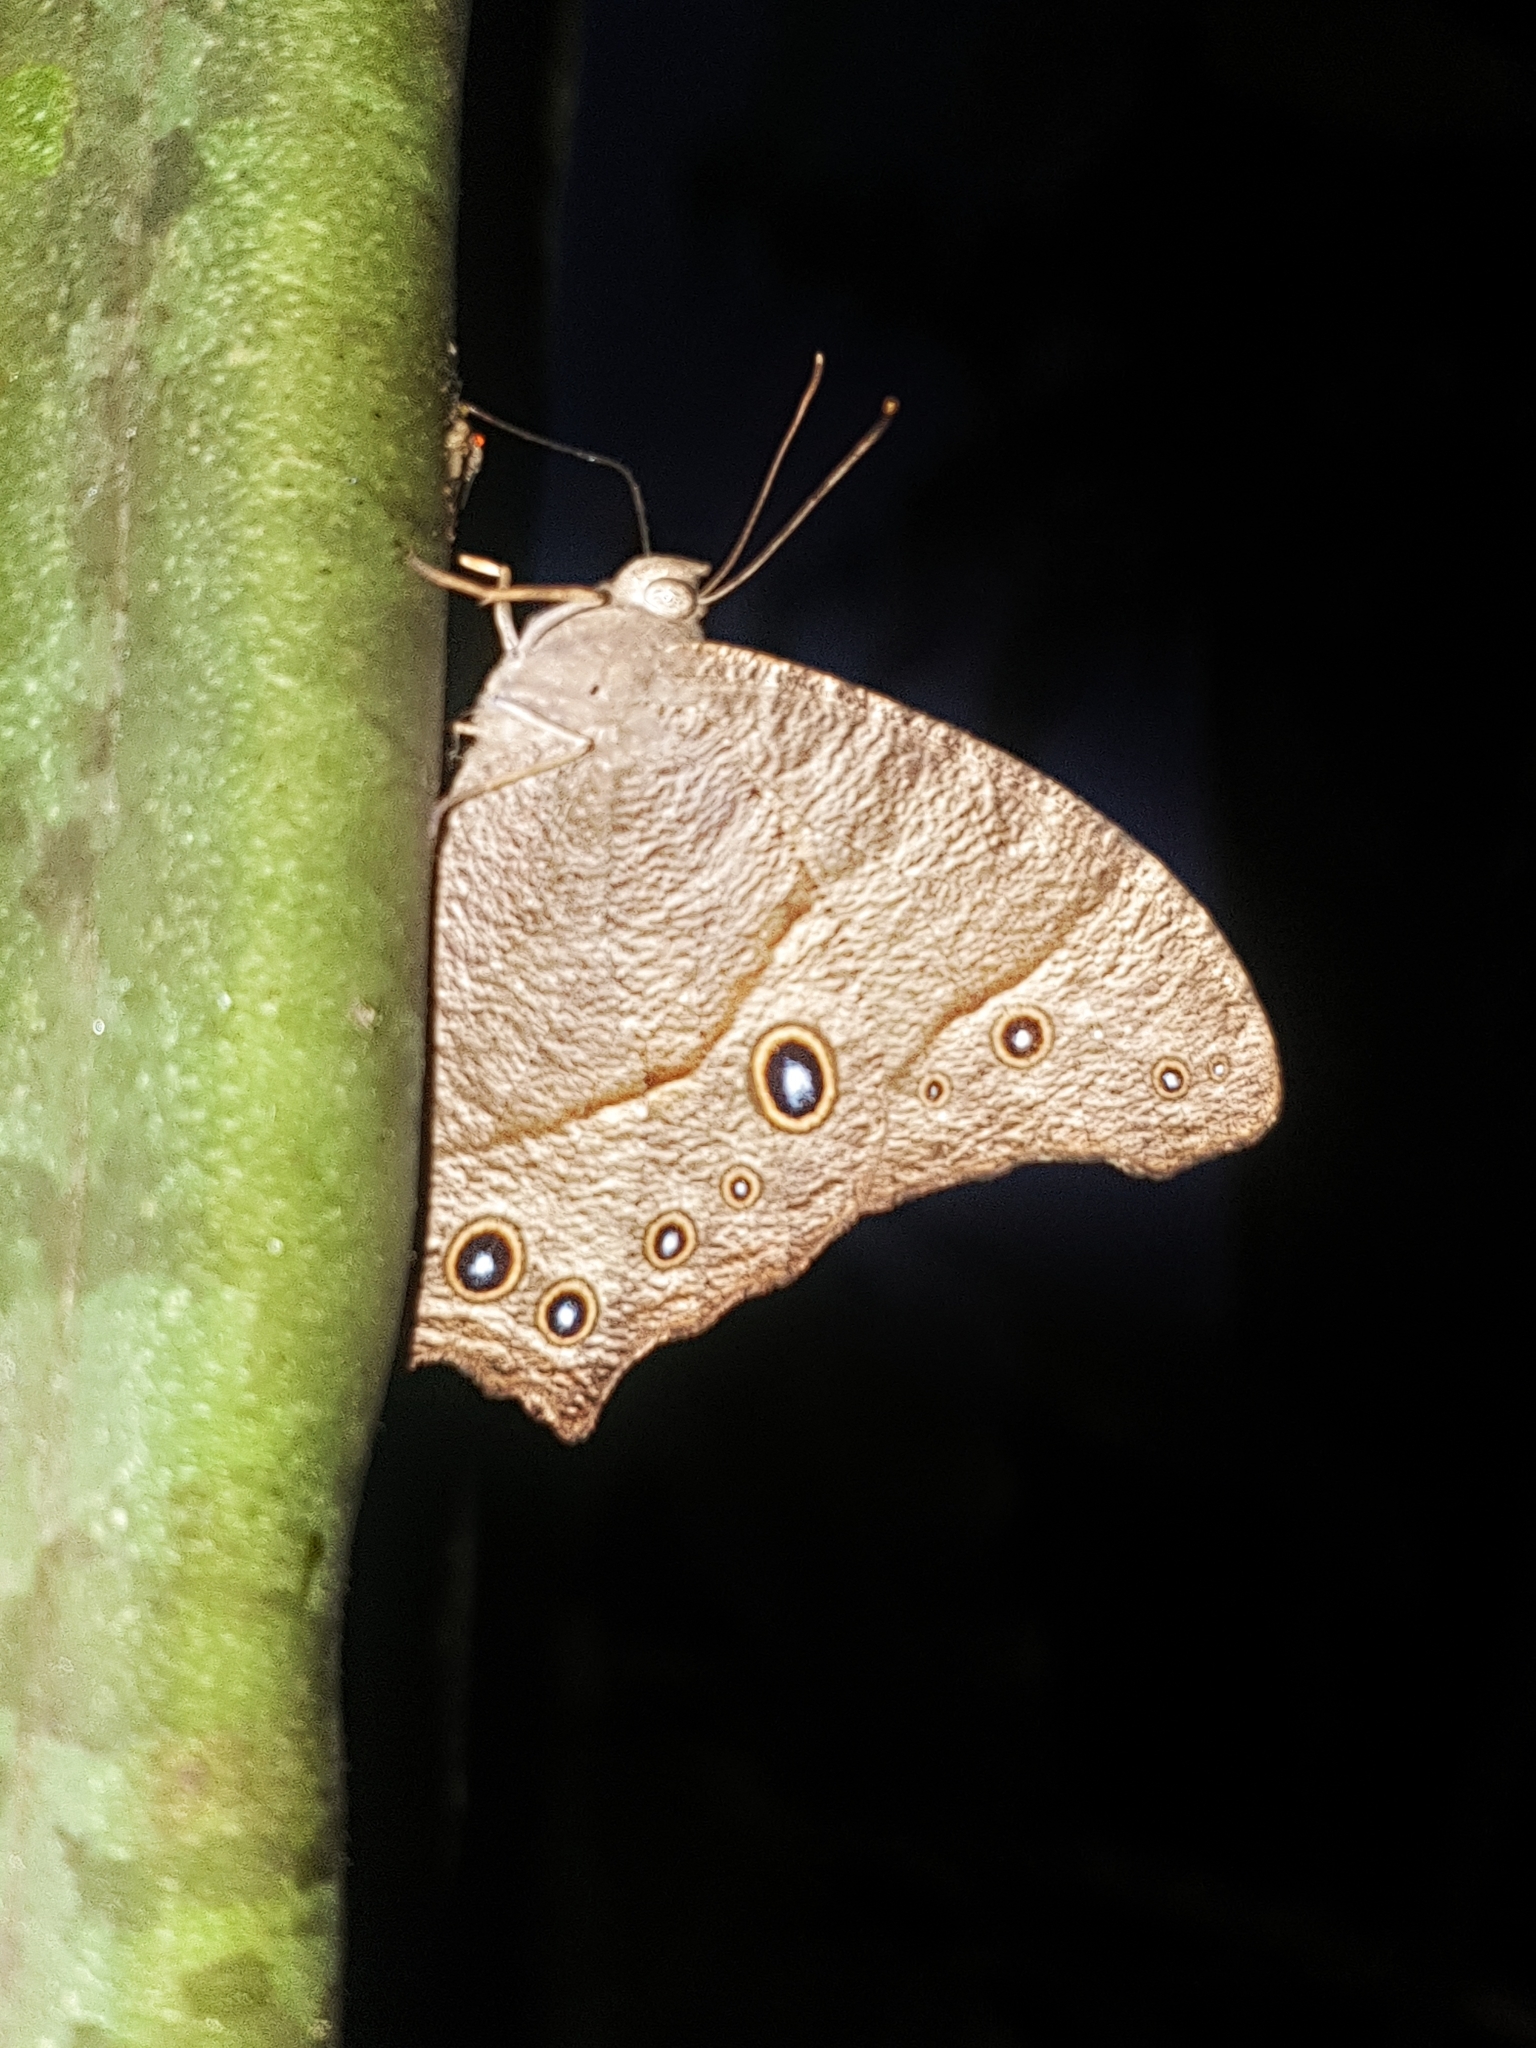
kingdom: Animalia
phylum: Arthropoda
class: Insecta
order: Lepidoptera
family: Nymphalidae
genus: Melanitis
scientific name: Melanitis leda
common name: Twilight brown
